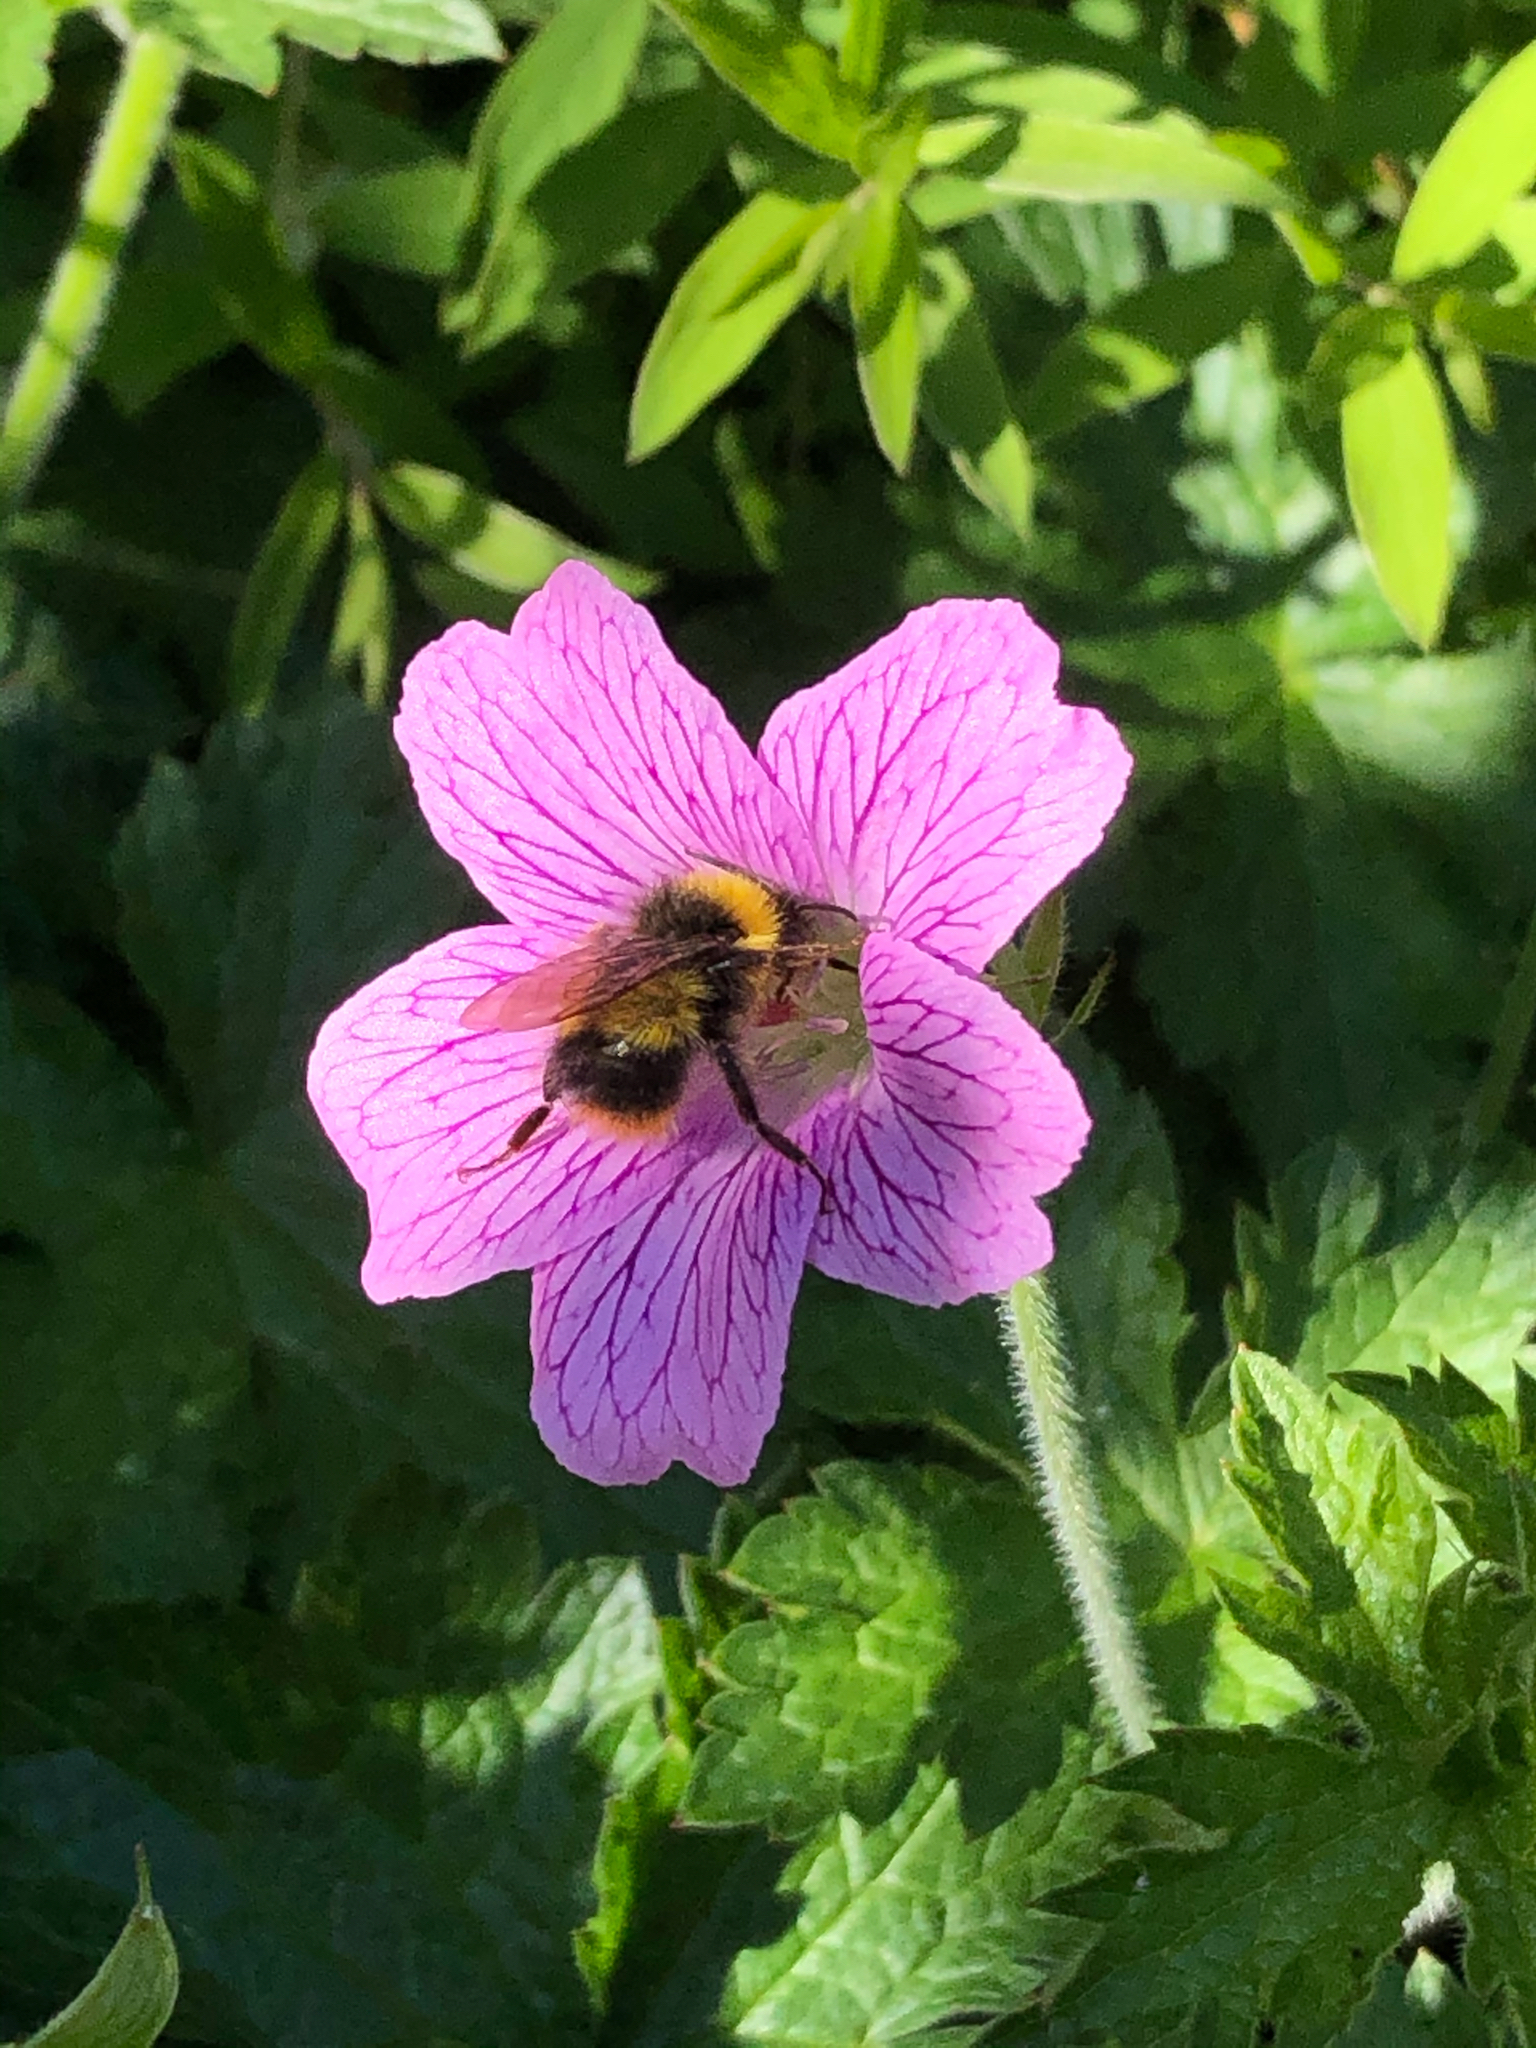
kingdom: Animalia
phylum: Arthropoda
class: Insecta
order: Hymenoptera
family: Apidae
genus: Bombus
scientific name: Bombus pratorum
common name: Early humble-bee
